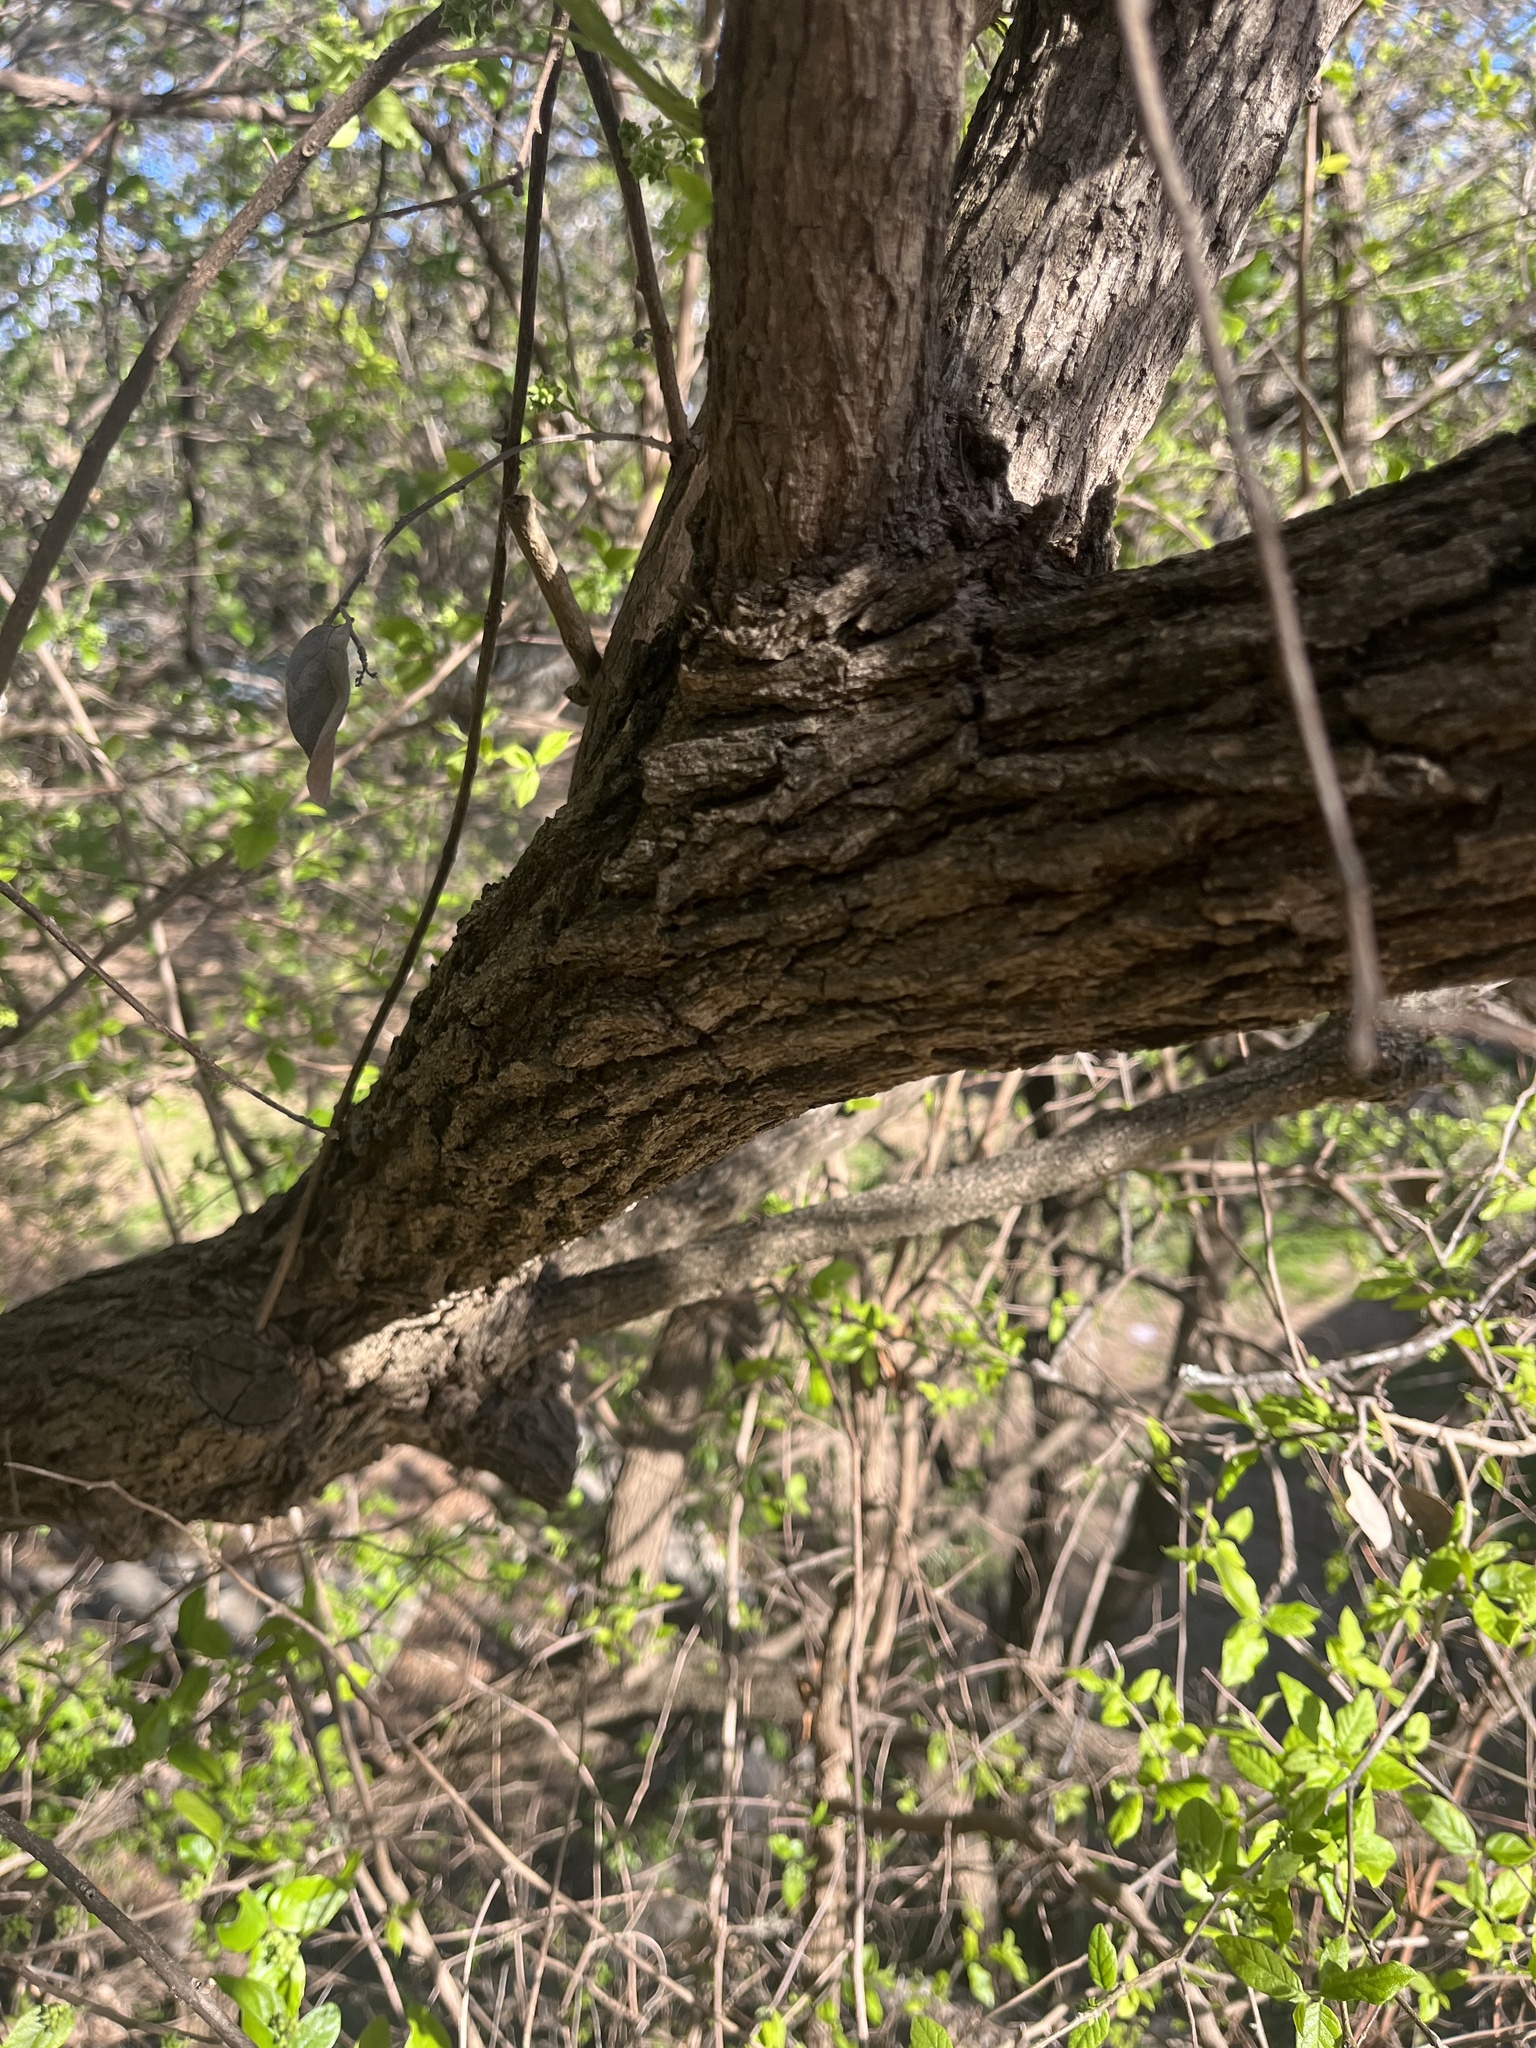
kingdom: Plantae
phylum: Tracheophyta
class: Magnoliopsida
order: Boraginales
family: Ehretiaceae
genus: Ehretia
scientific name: Ehretia anacua
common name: Sugarberry
